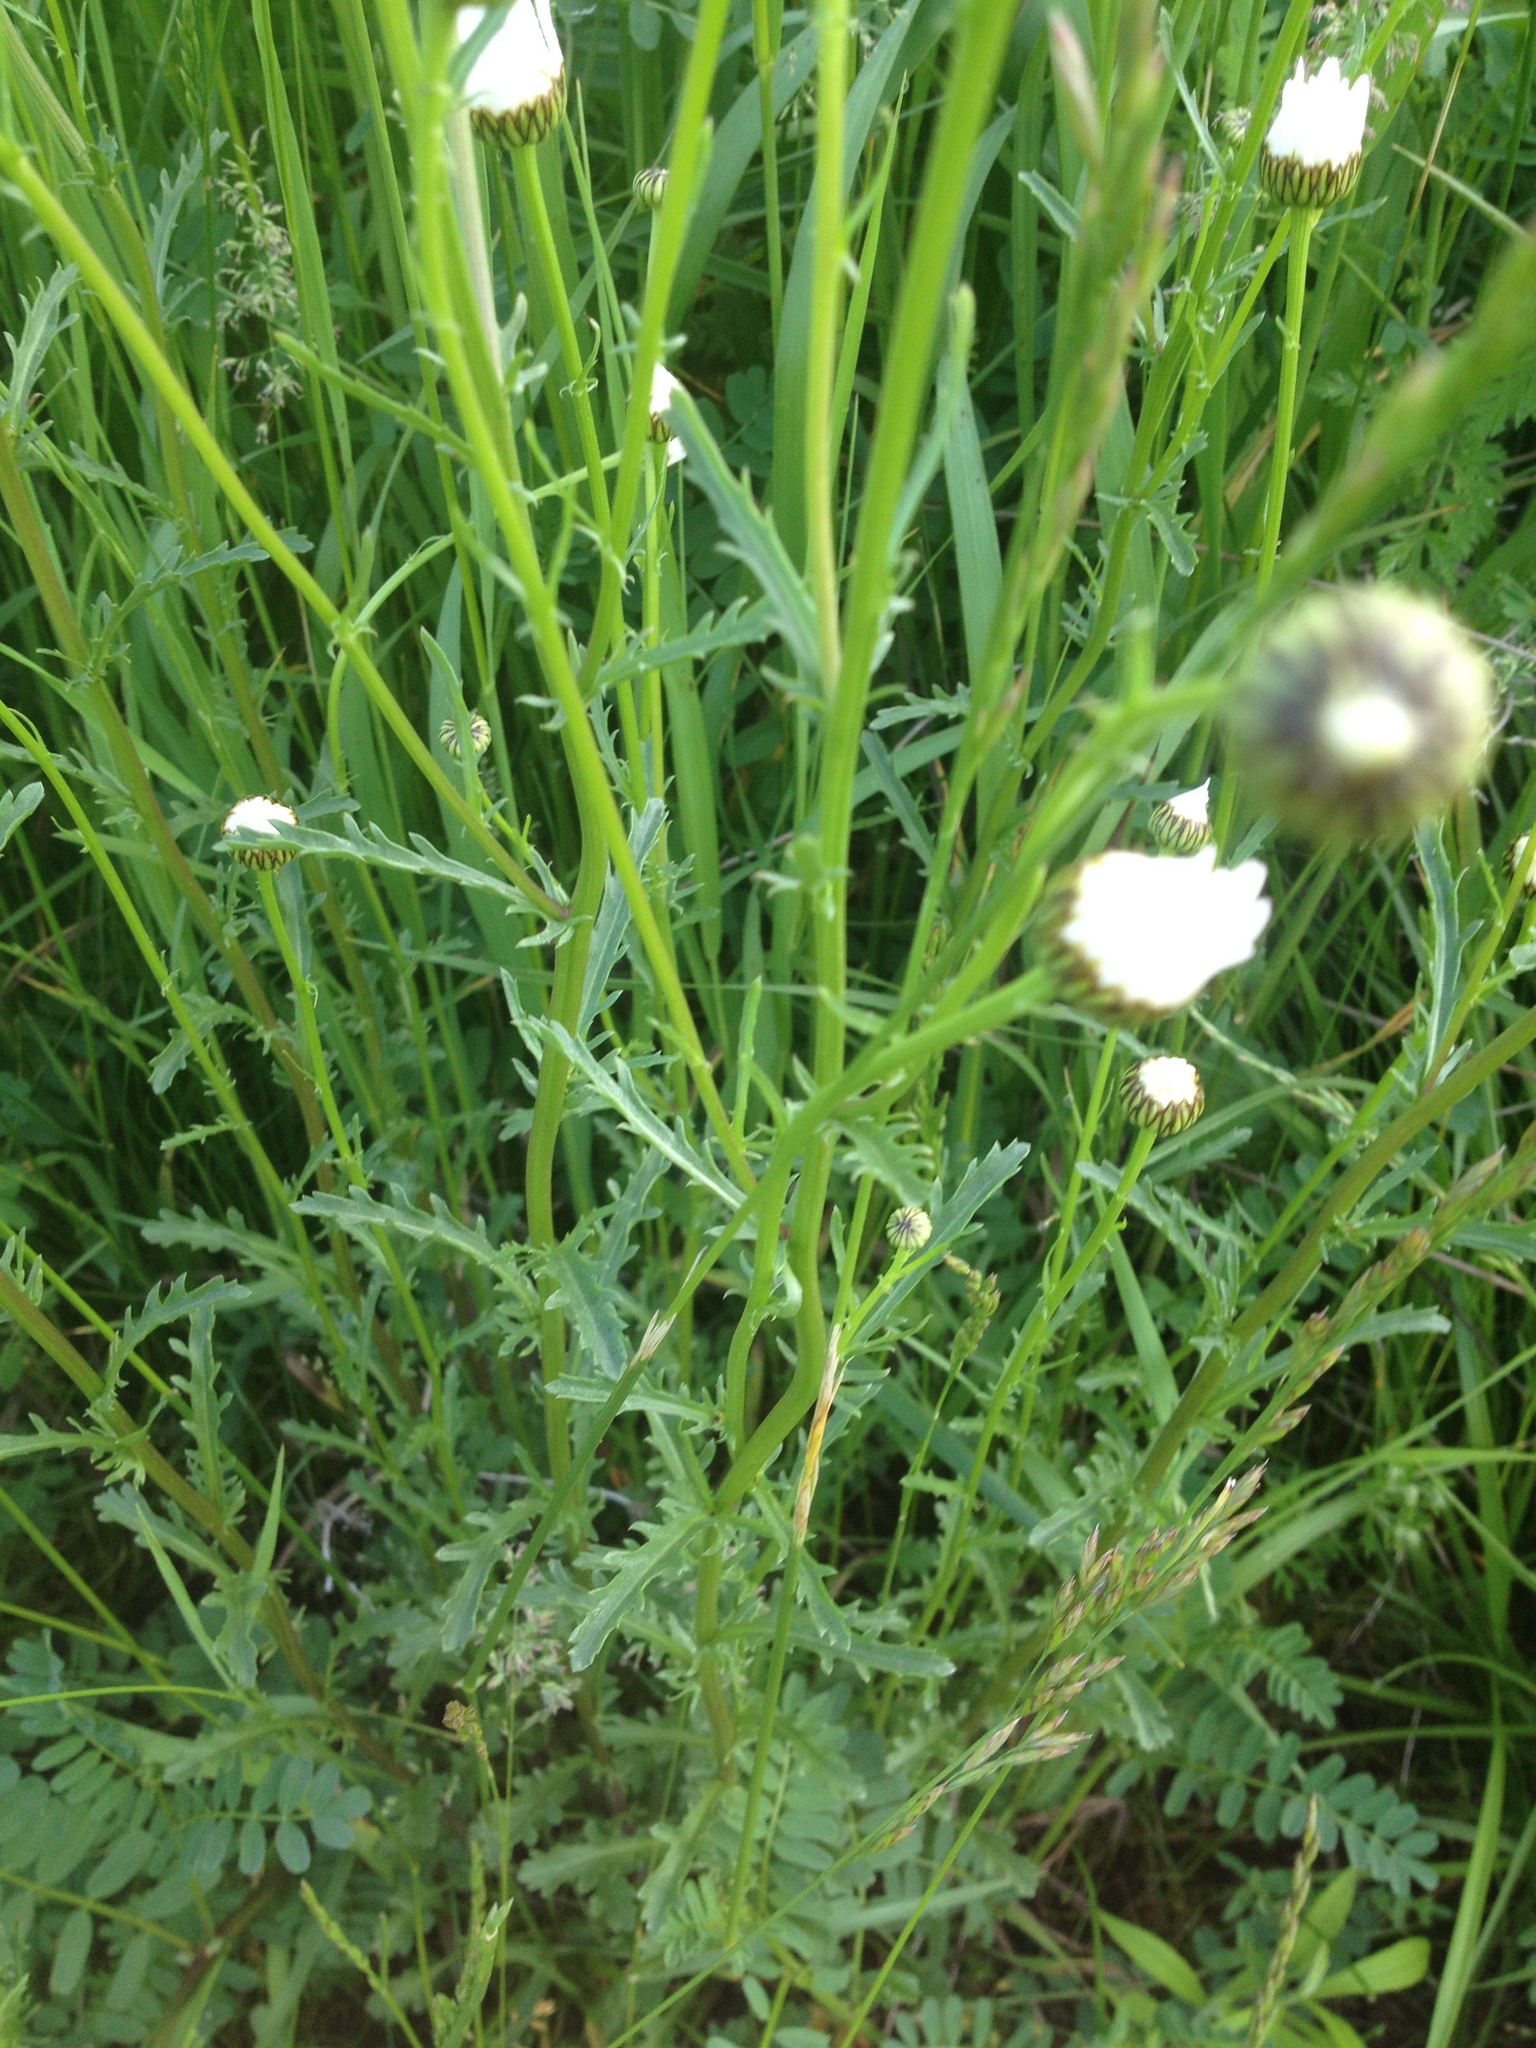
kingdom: Plantae
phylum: Tracheophyta
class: Magnoliopsida
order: Asterales
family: Asteraceae
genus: Leucanthemum
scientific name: Leucanthemum vulgare
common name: Oxeye daisy
